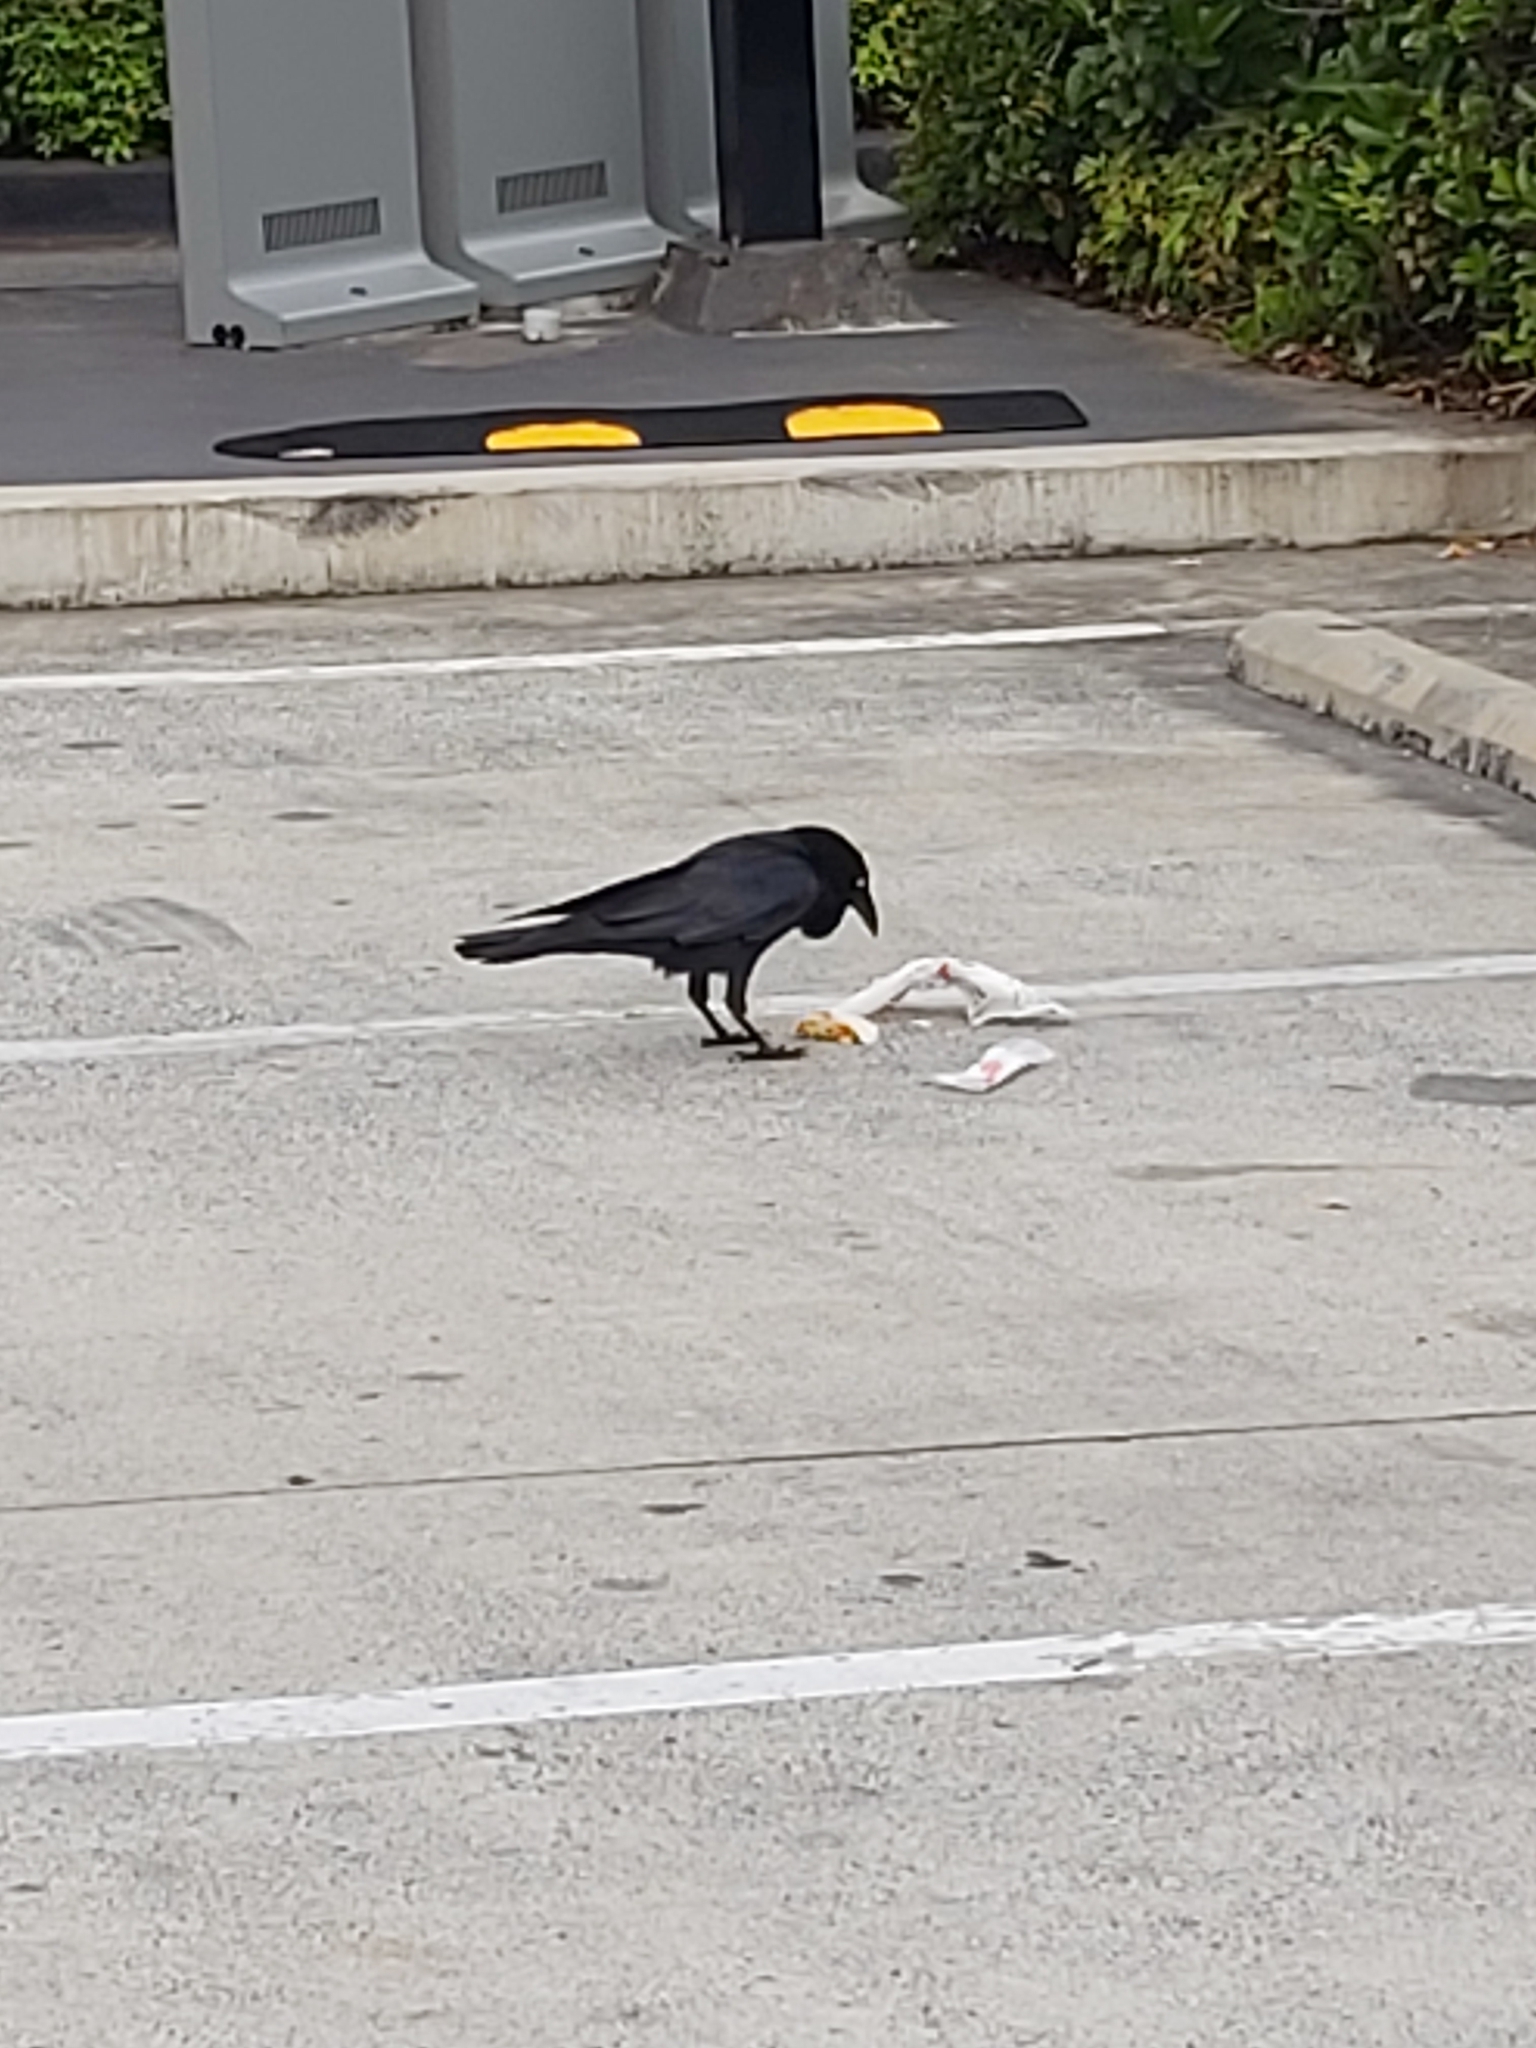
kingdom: Animalia
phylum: Chordata
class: Aves
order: Passeriformes
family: Corvidae
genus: Corvus
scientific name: Corvus coronoides
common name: Australian raven
